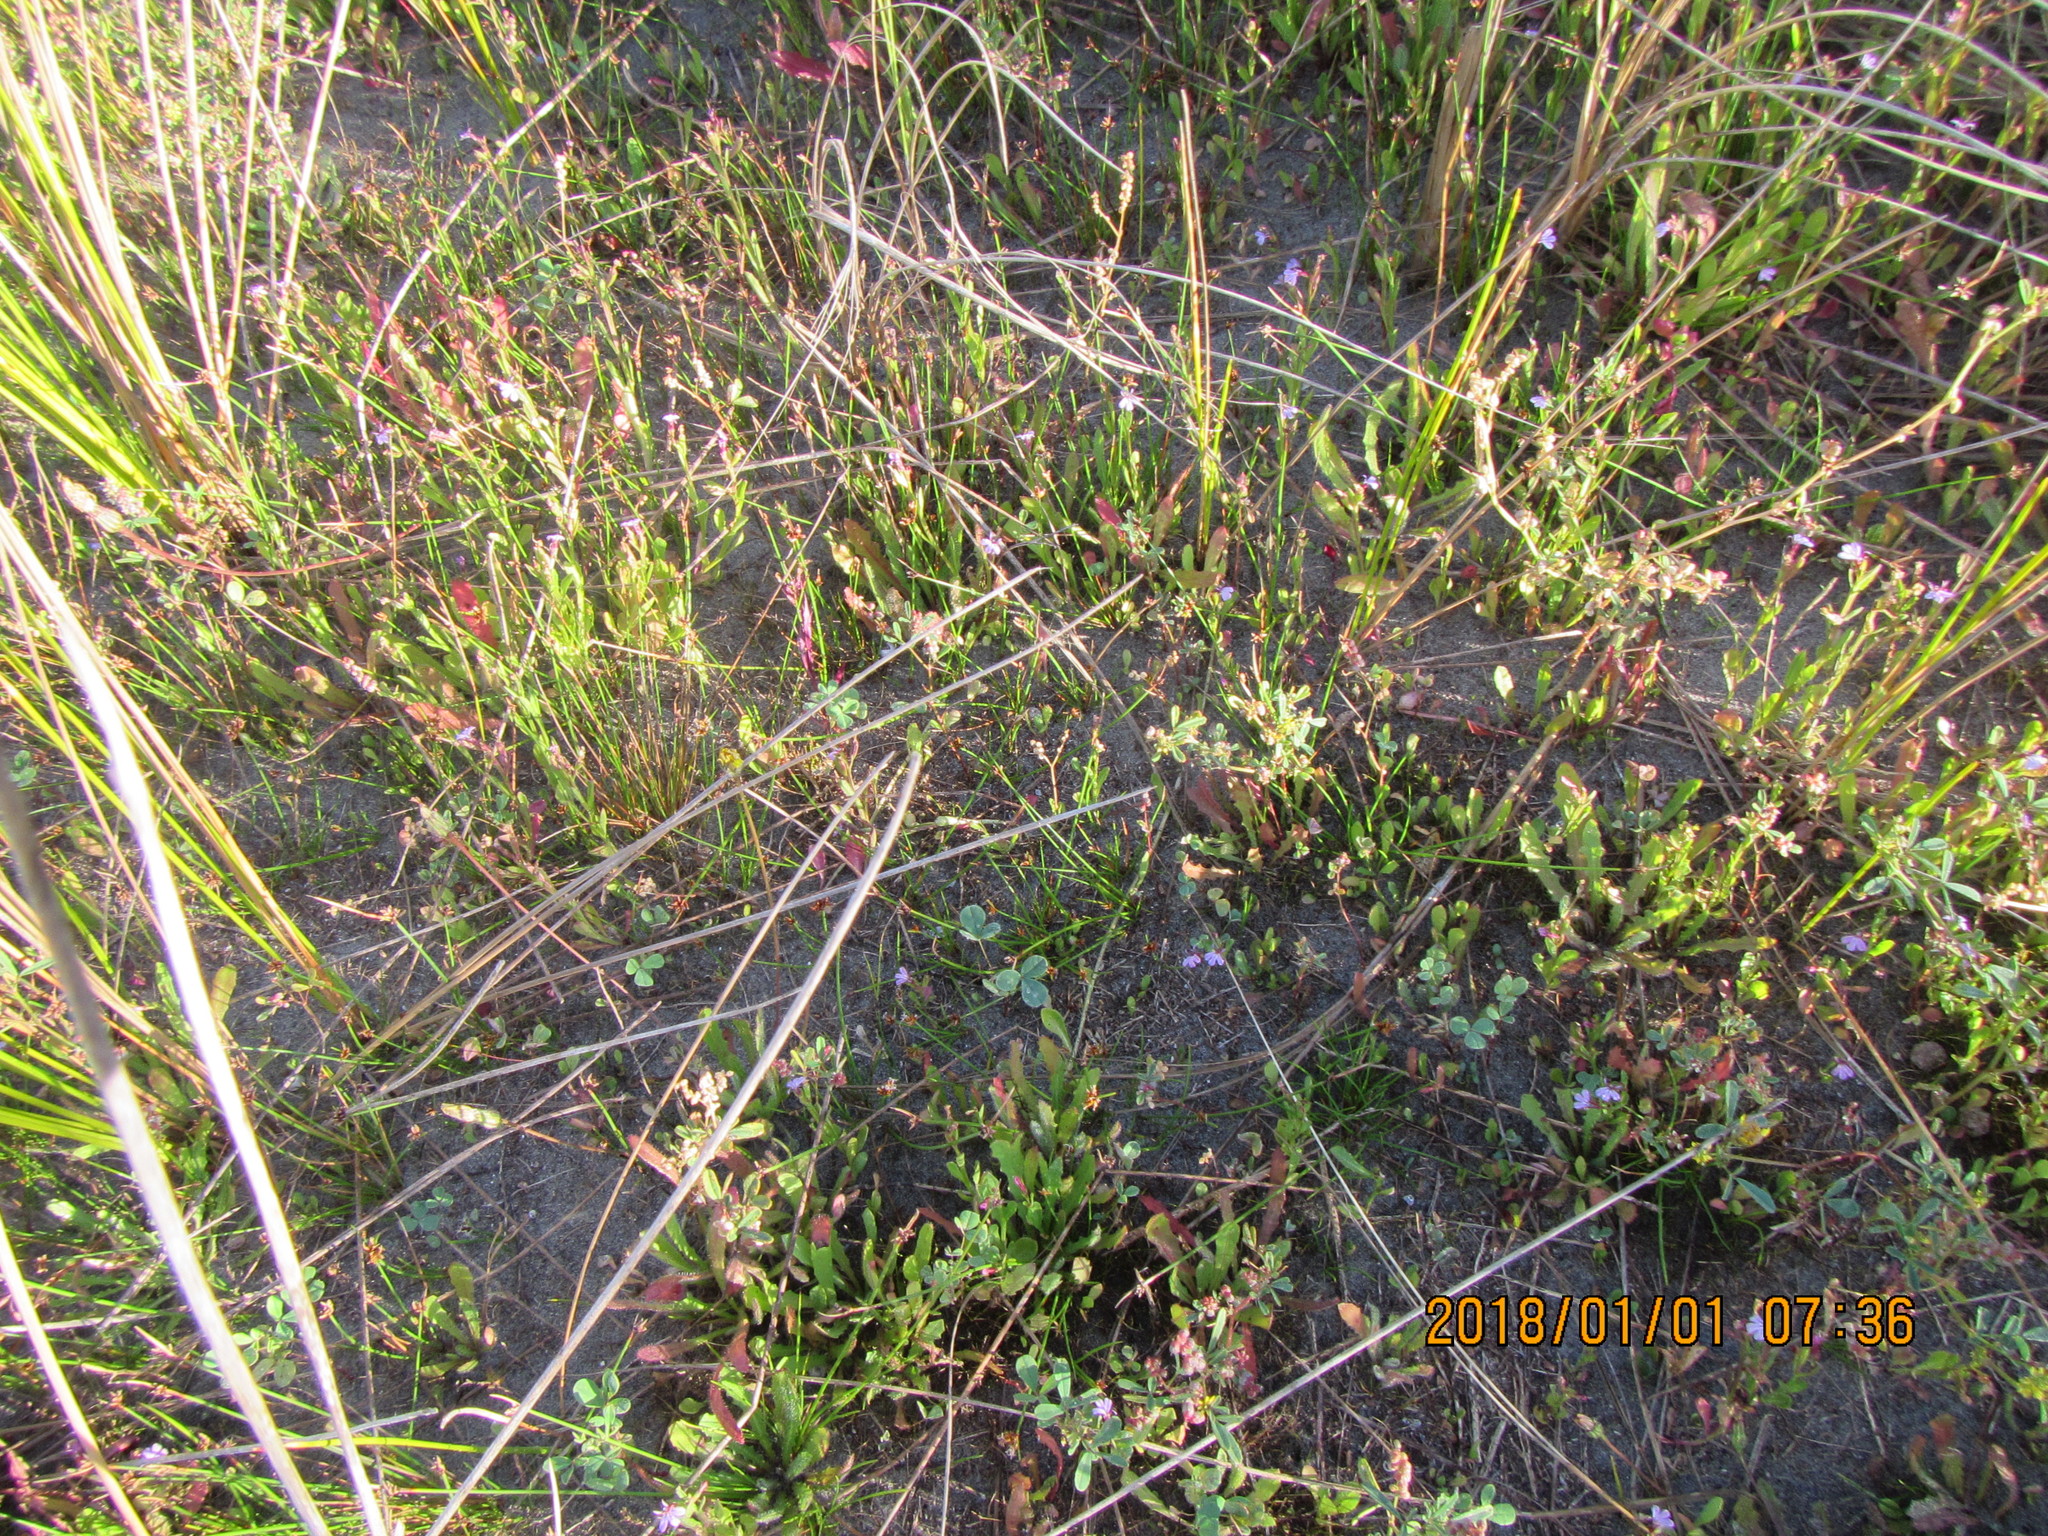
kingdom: Plantae
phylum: Tracheophyta
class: Magnoliopsida
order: Asterales
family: Campanulaceae
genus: Lobelia
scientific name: Lobelia anceps
